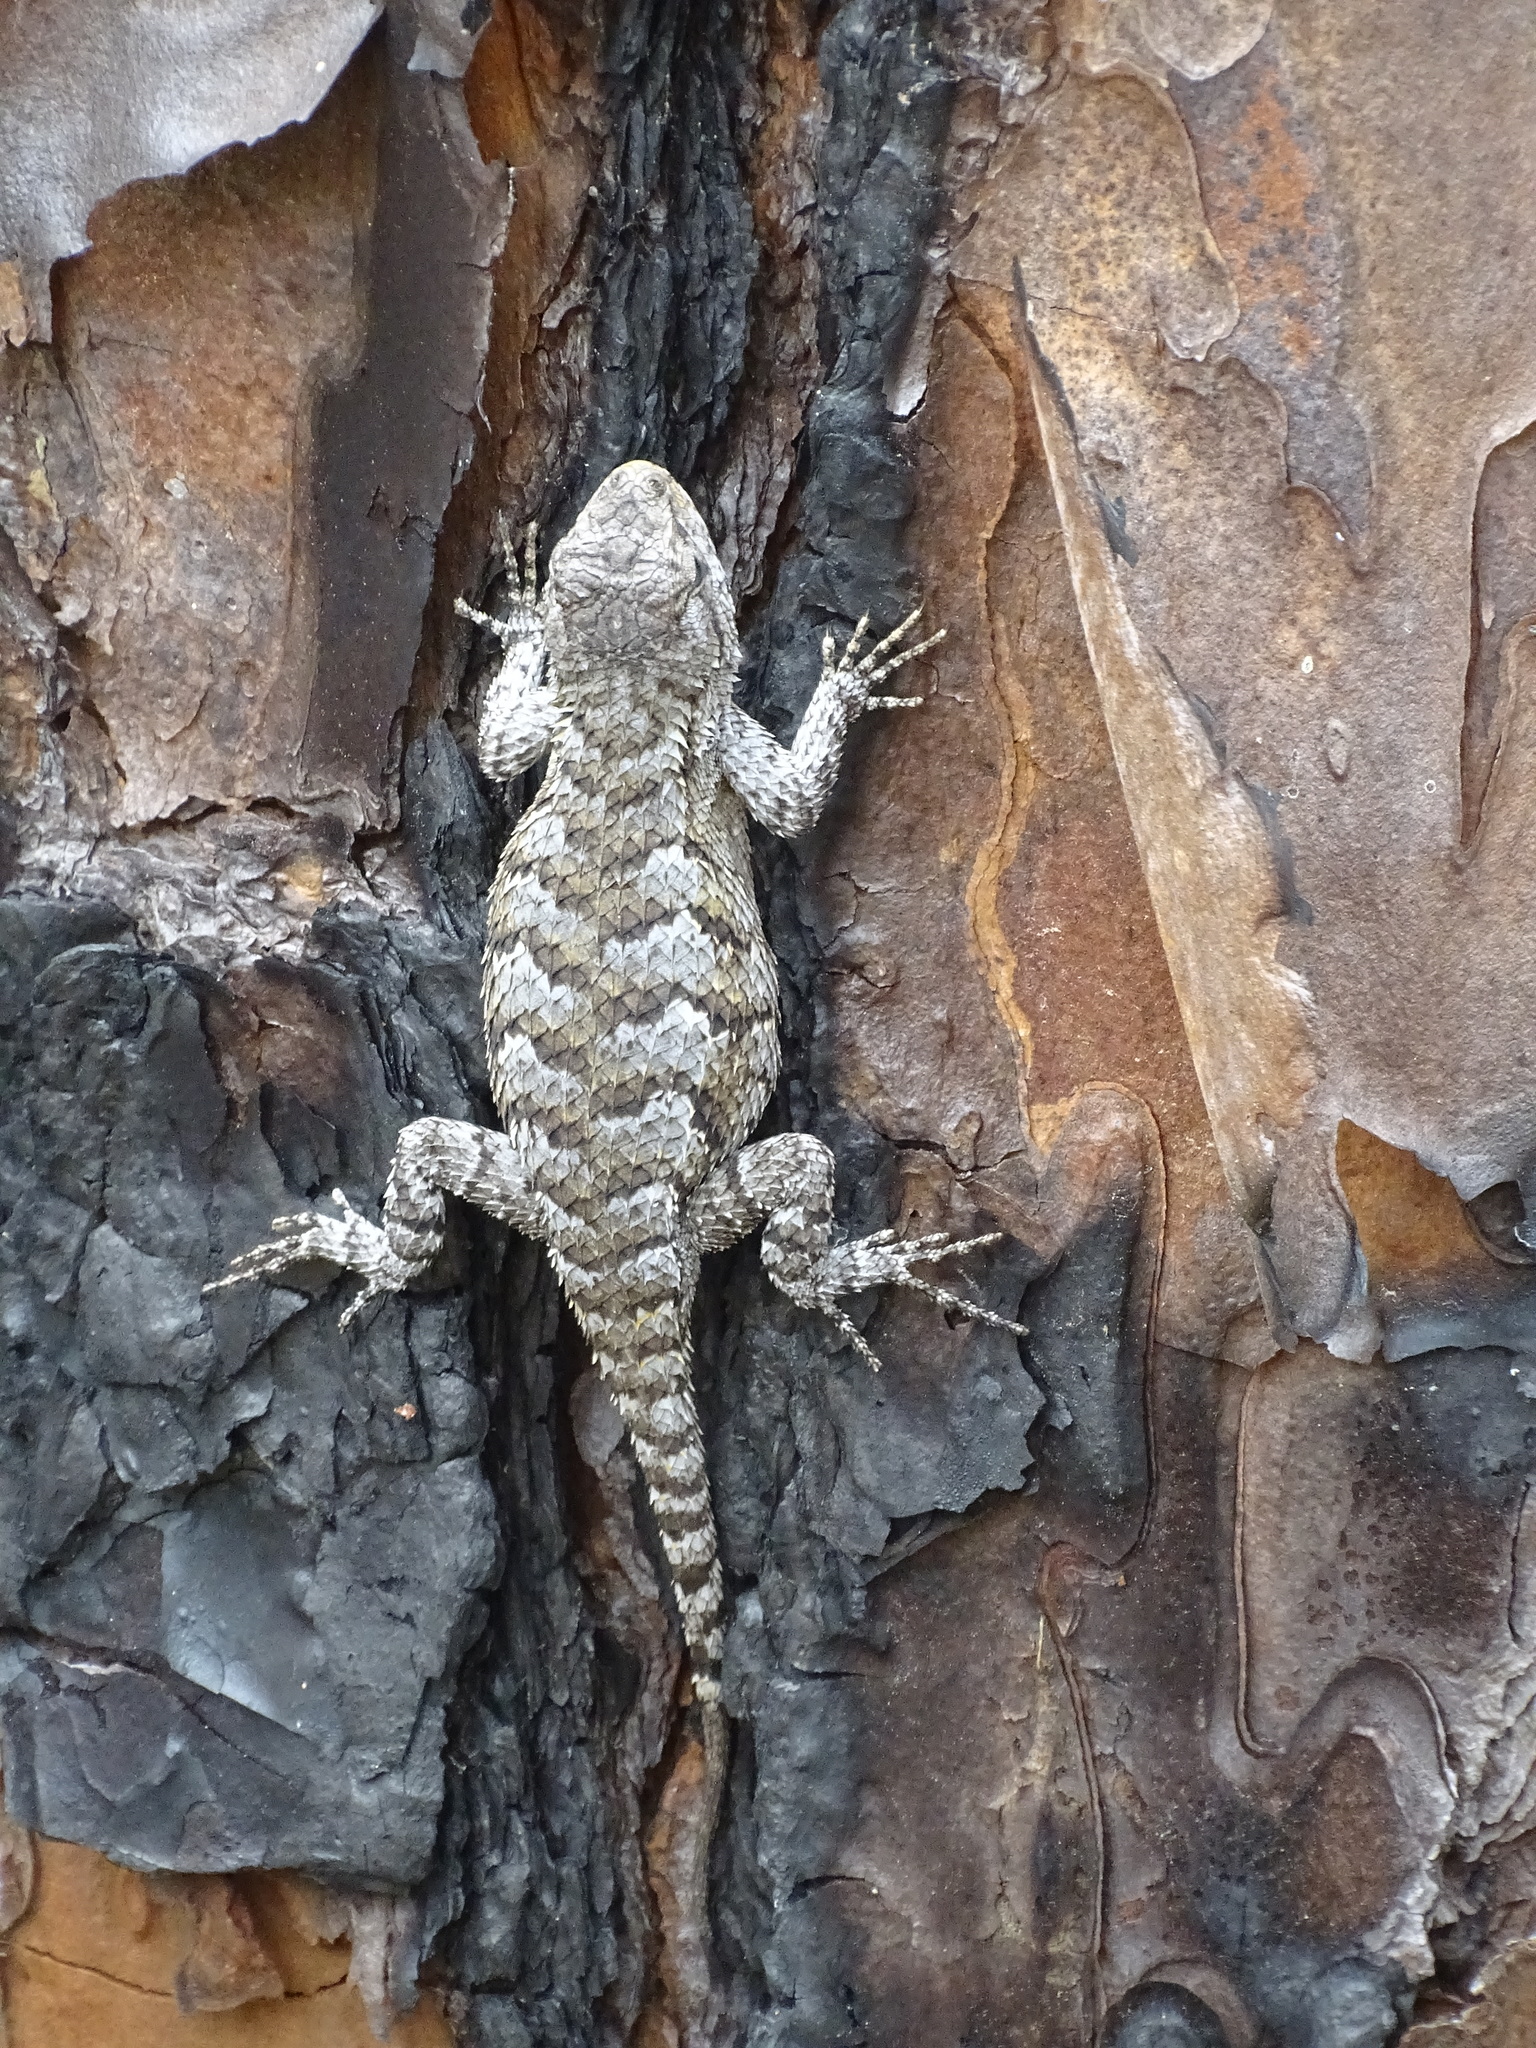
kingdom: Animalia
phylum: Chordata
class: Squamata
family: Phrynosomatidae
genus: Sceloporus
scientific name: Sceloporus undulatus
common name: Eastern fence lizard
